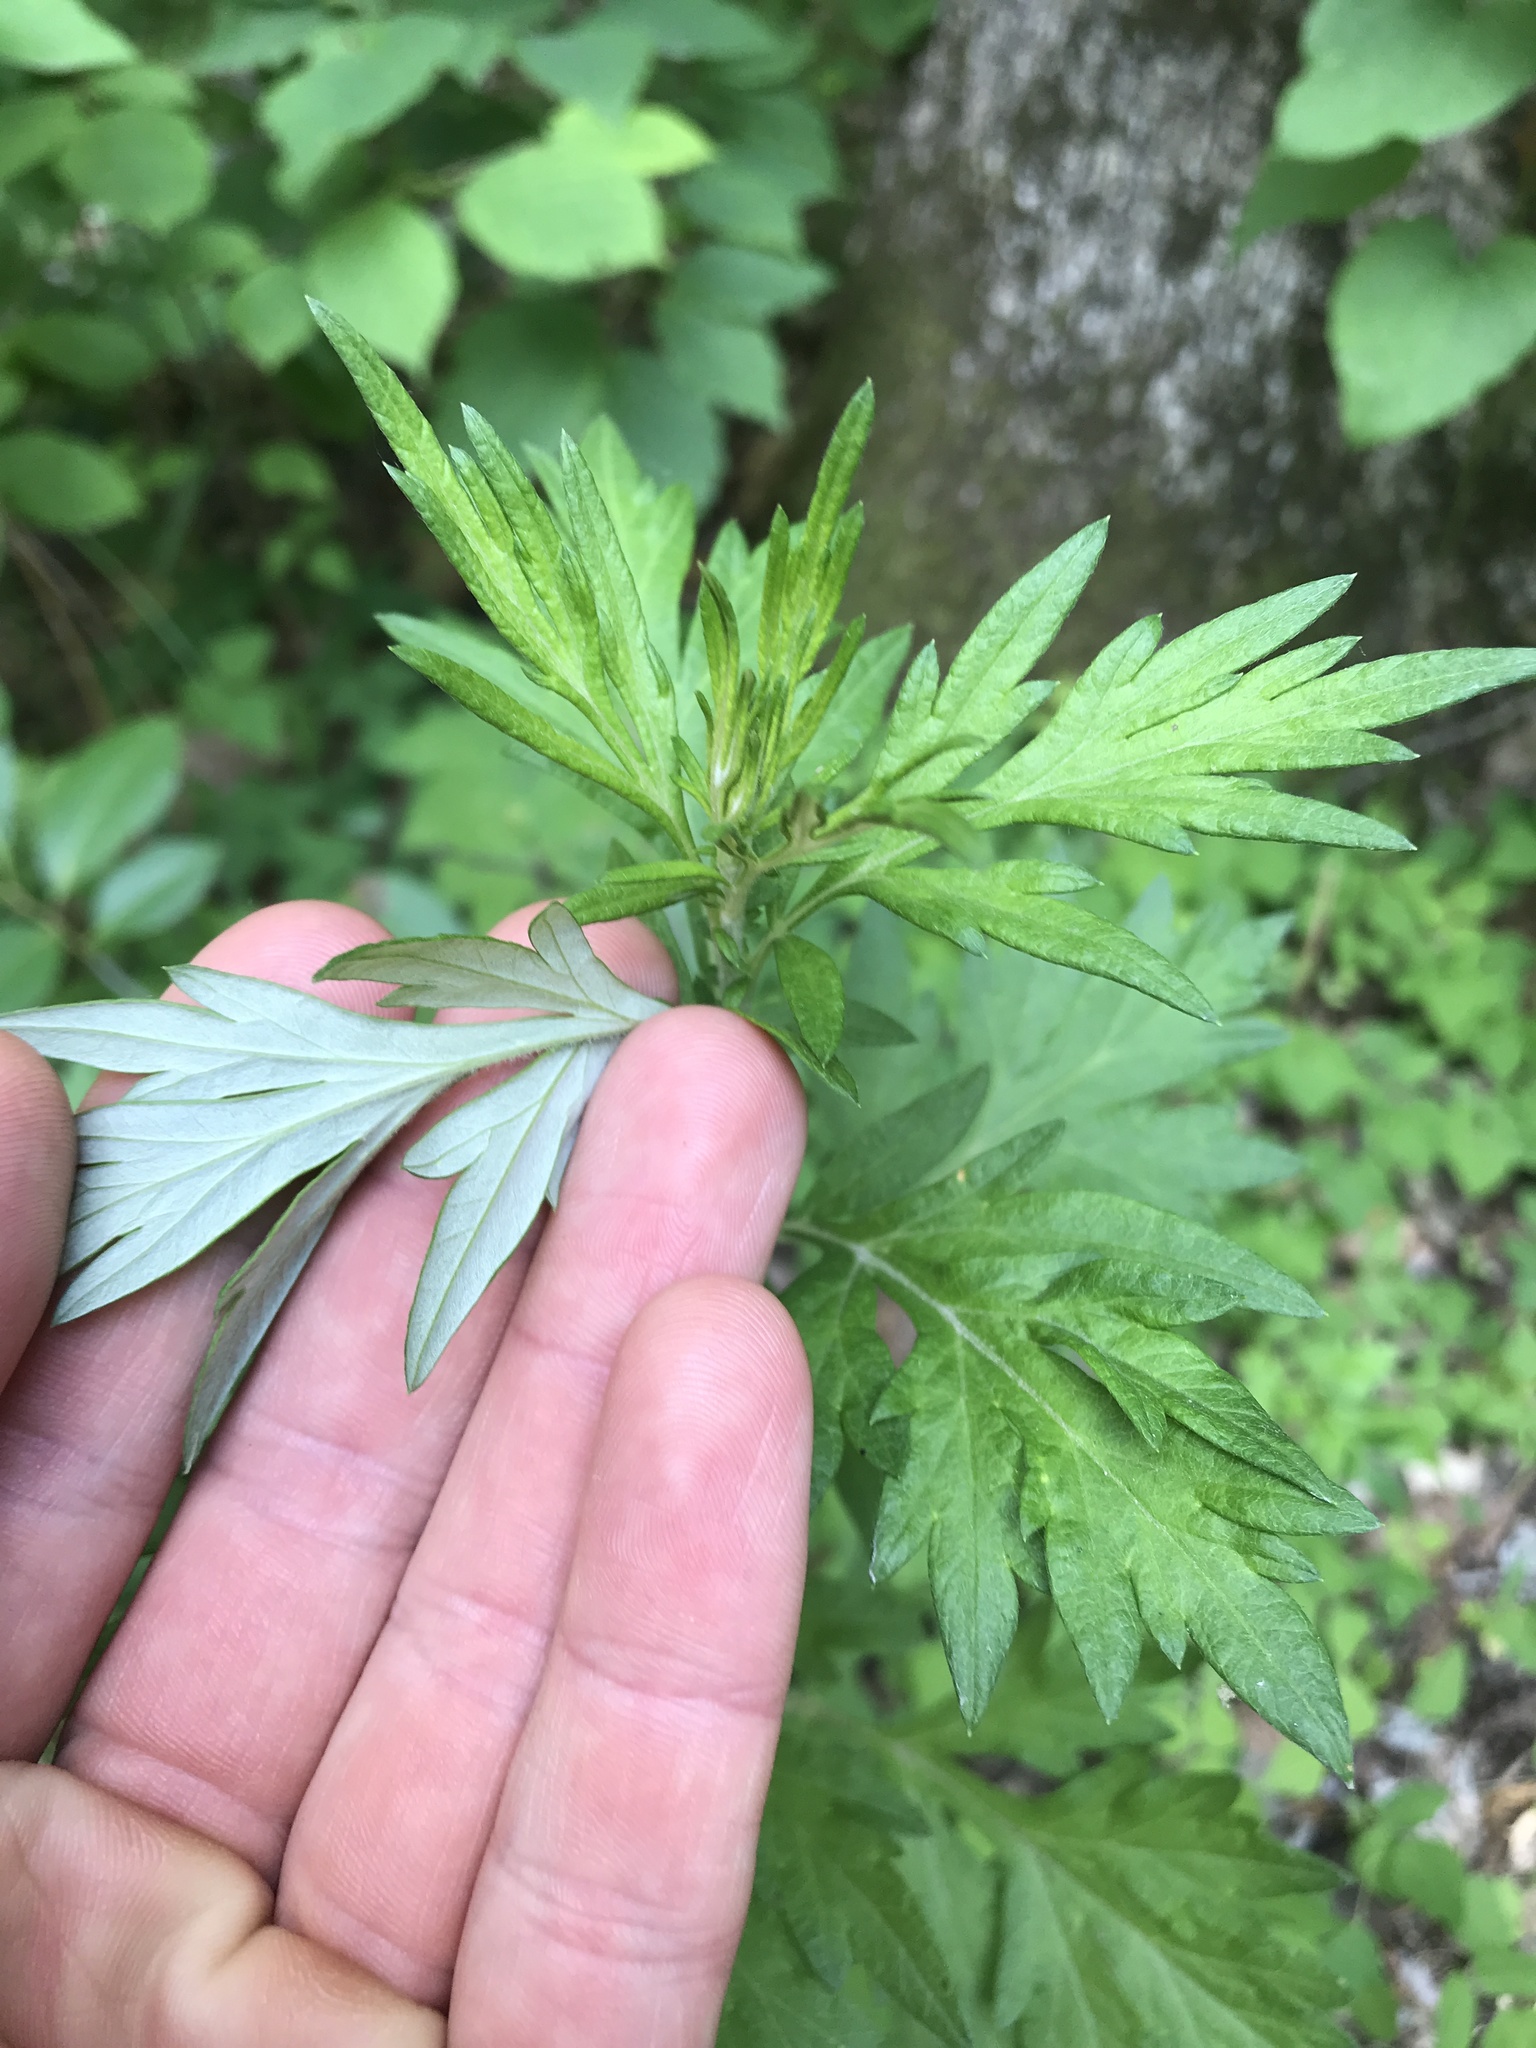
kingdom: Plantae
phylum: Tracheophyta
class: Magnoliopsida
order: Asterales
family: Asteraceae
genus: Artemisia
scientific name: Artemisia vulgaris
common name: Mugwort
